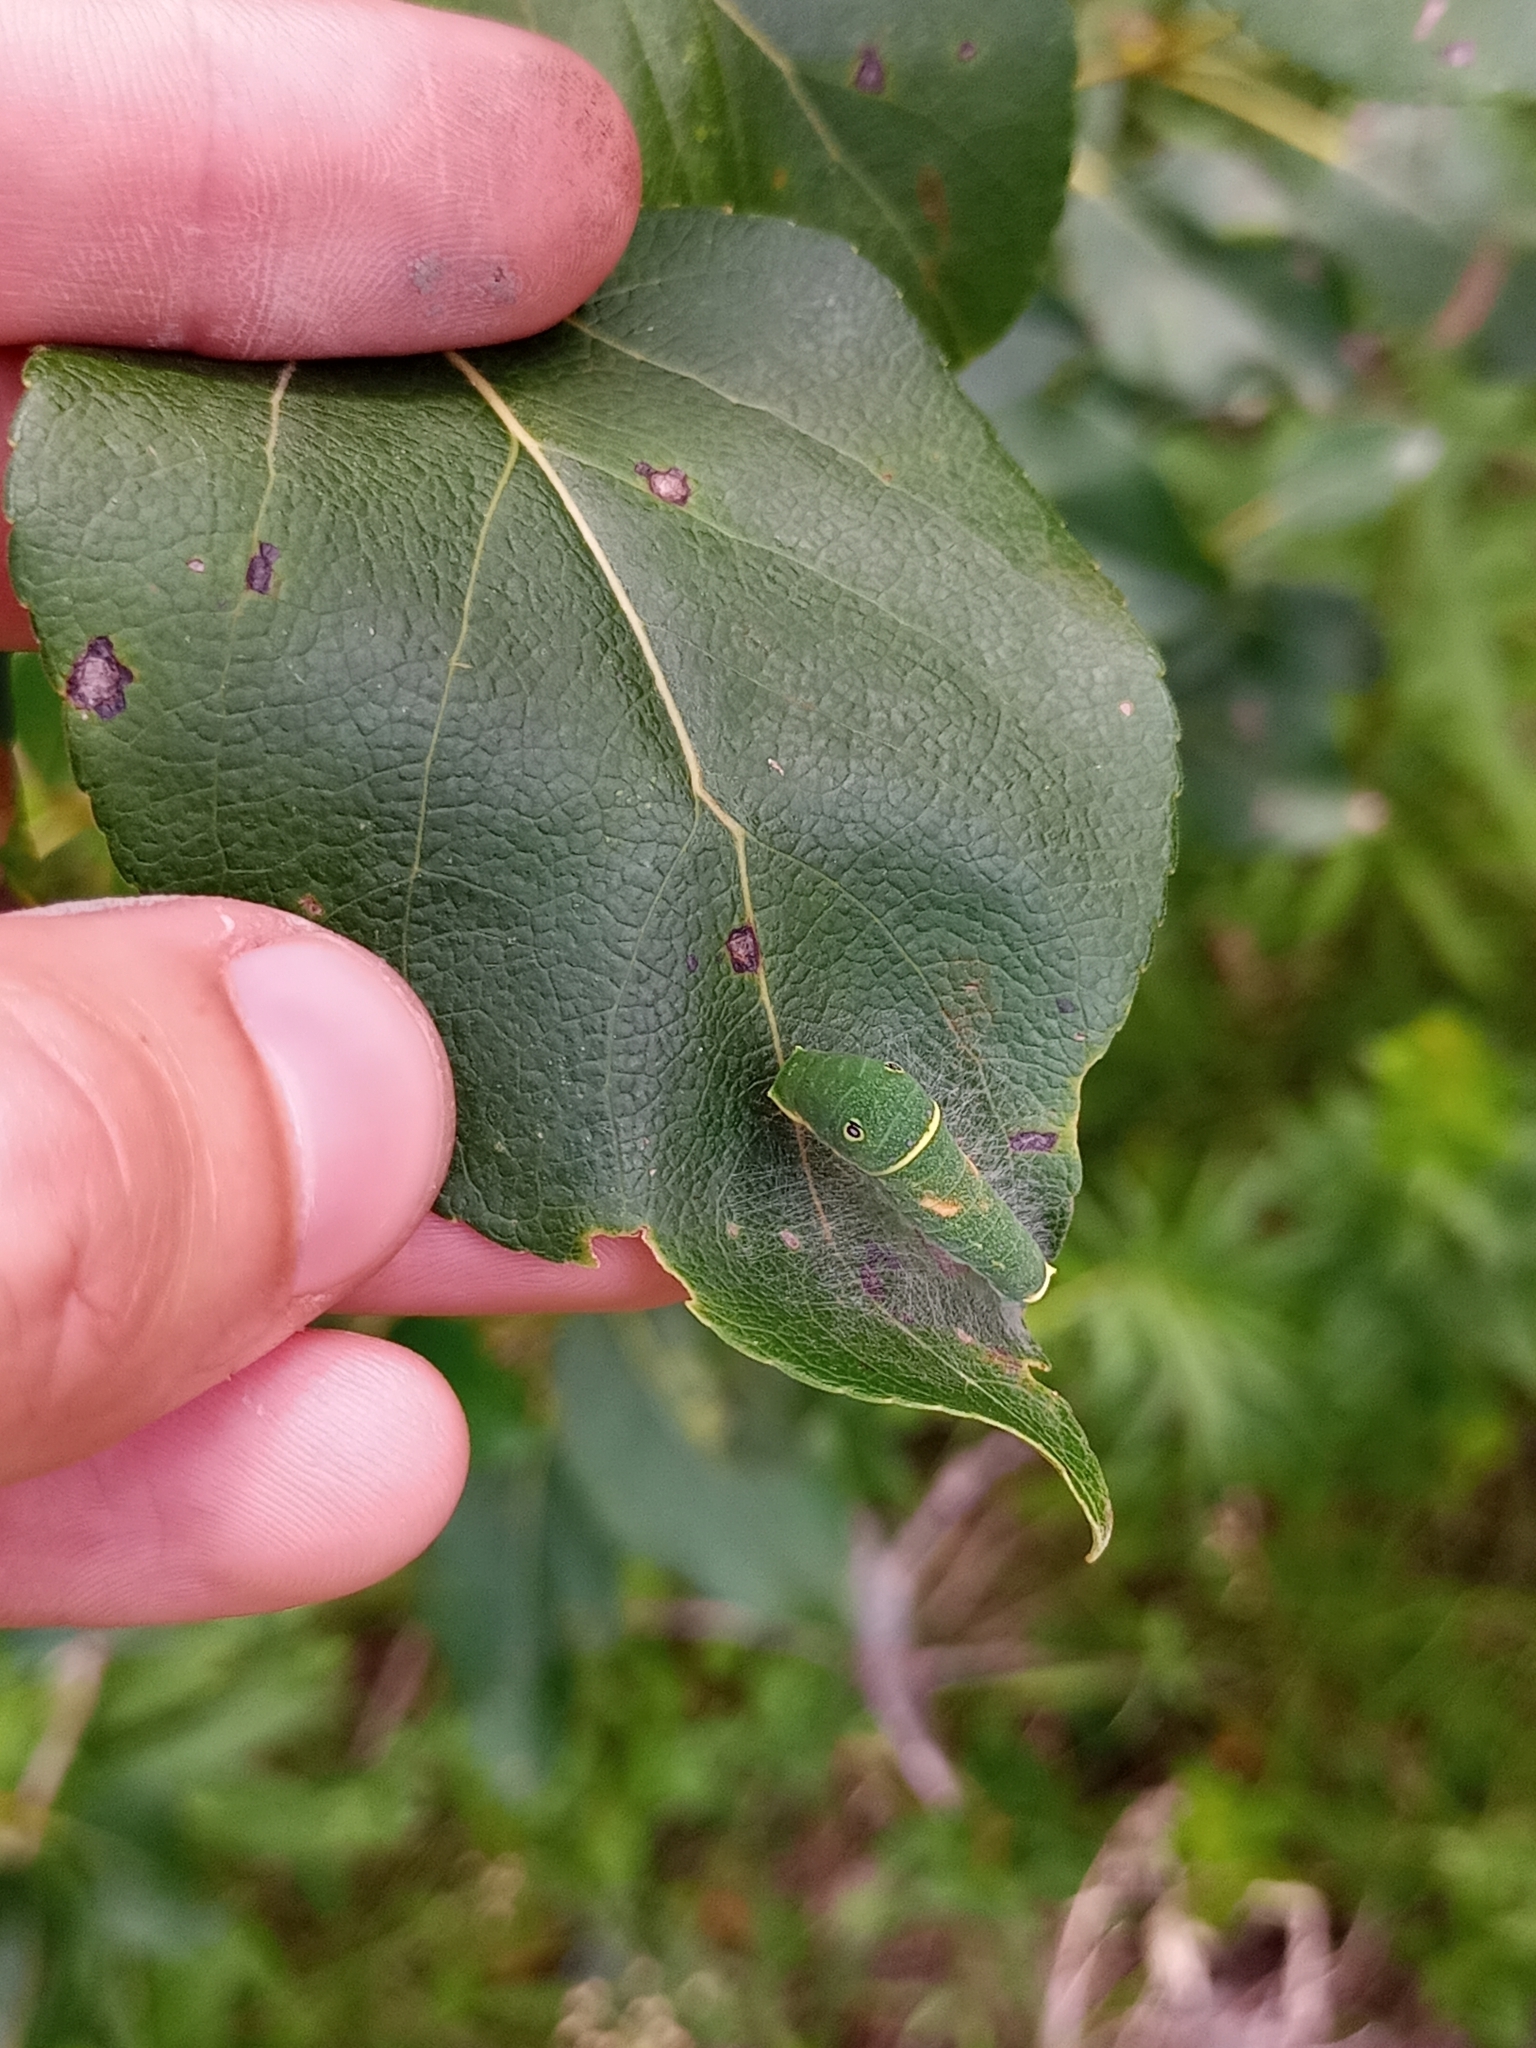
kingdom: Animalia
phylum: Arthropoda
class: Insecta
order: Lepidoptera
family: Papilionidae
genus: Papilio
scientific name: Papilio canadensis
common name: Canadian tiger swallowtail
